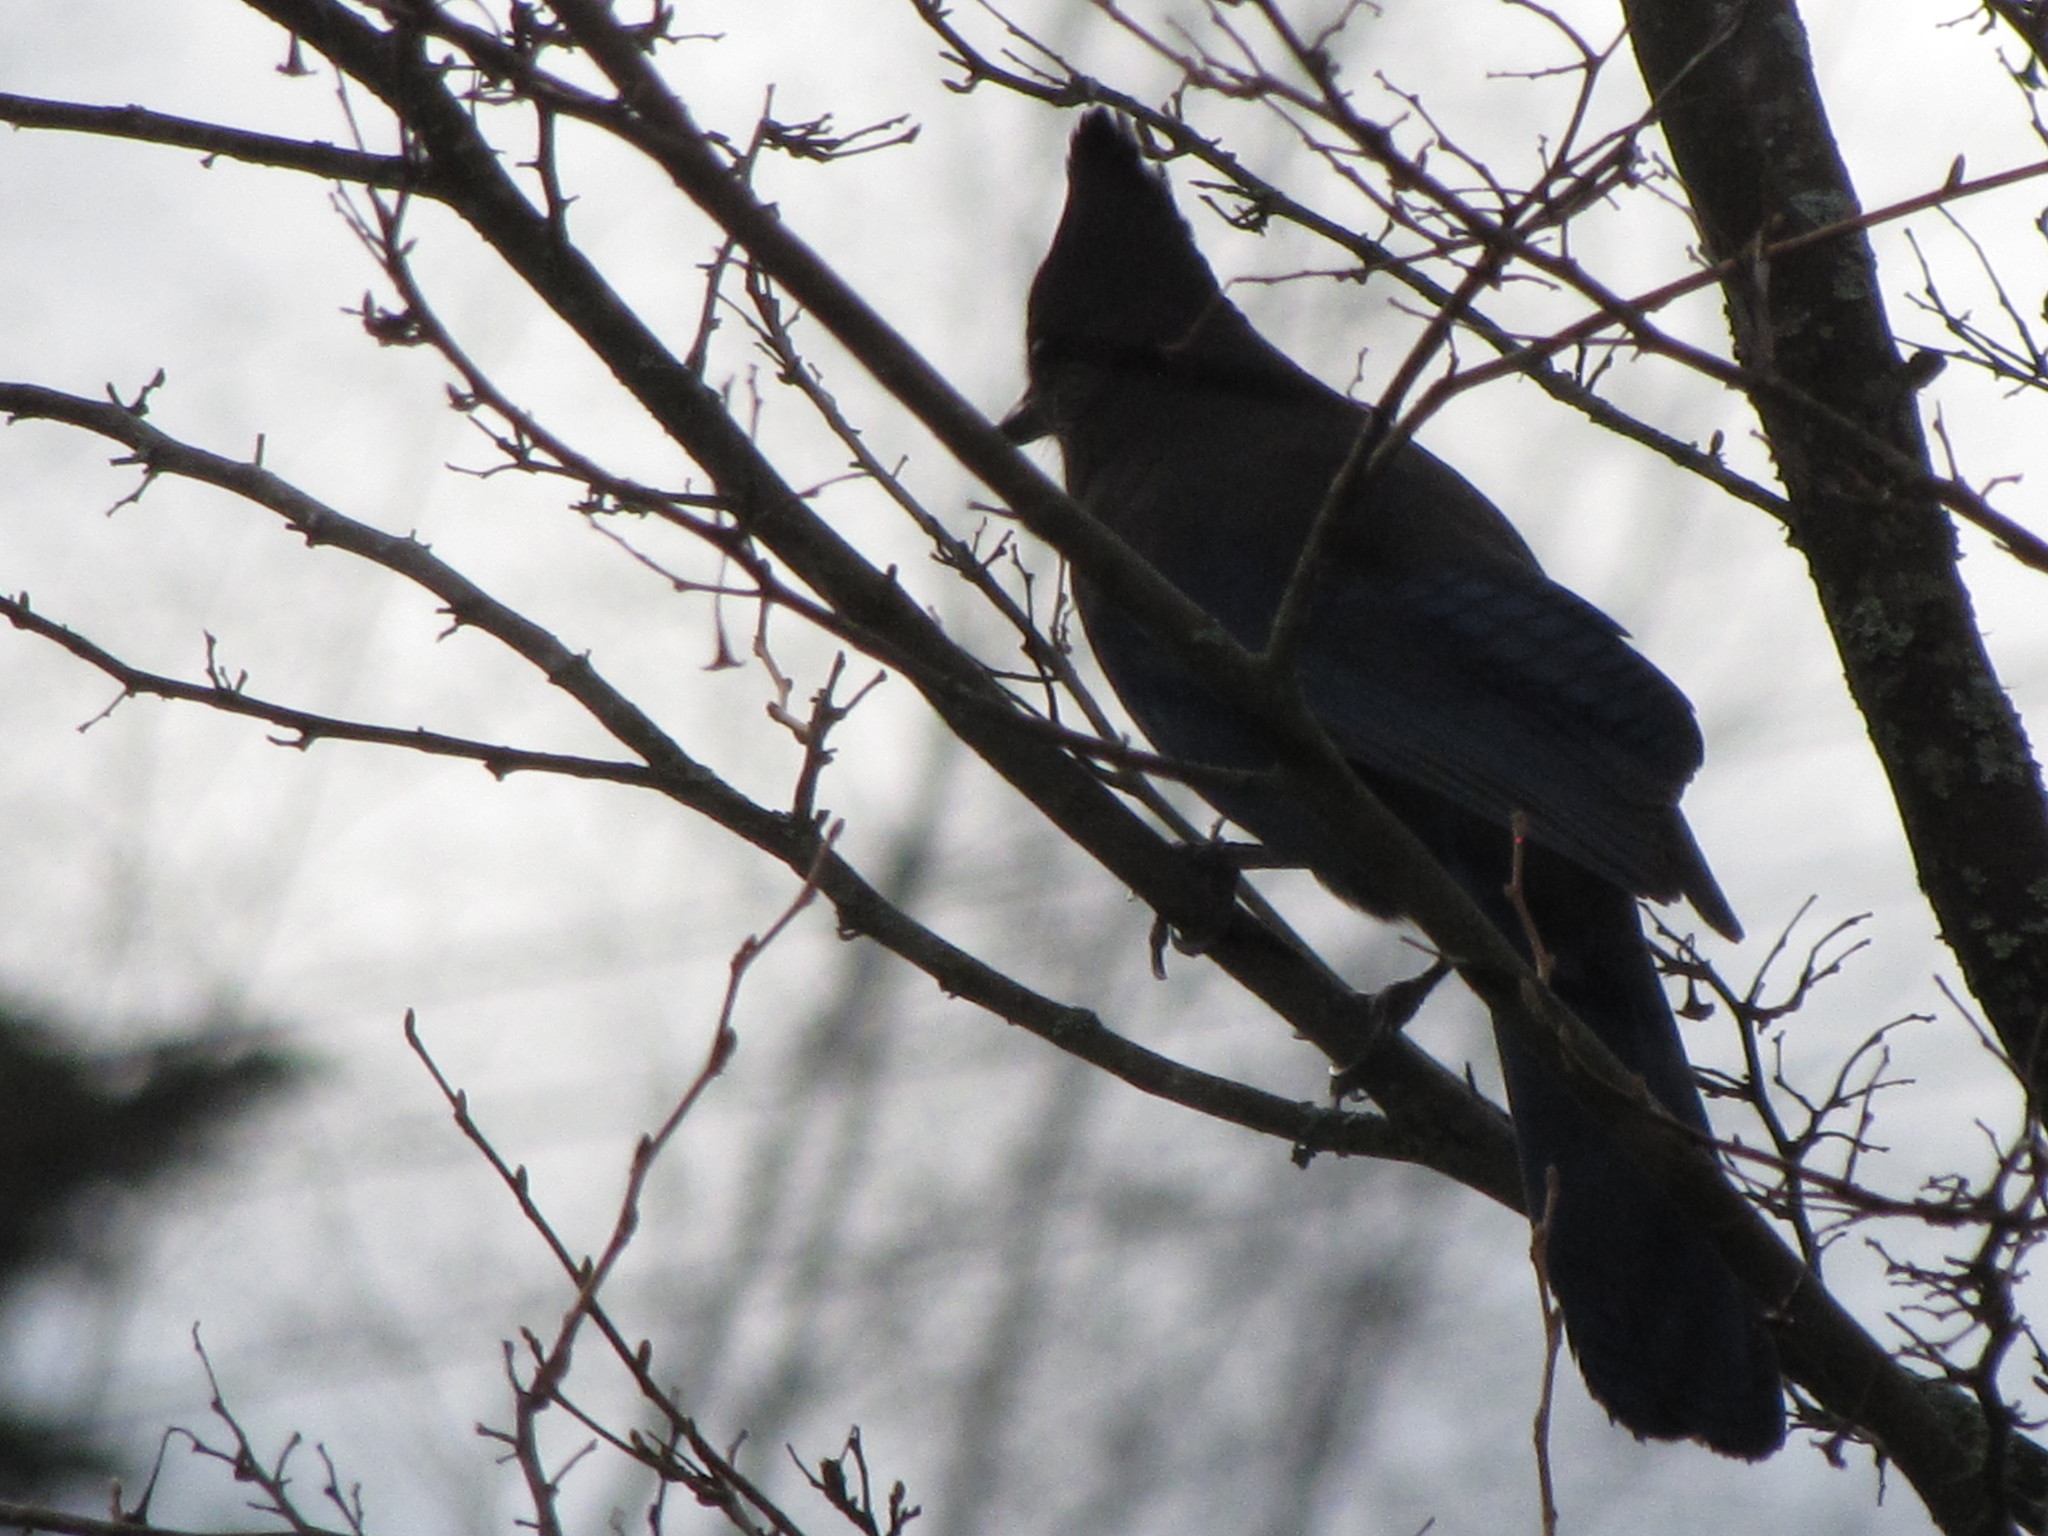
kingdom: Animalia
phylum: Chordata
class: Aves
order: Passeriformes
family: Corvidae
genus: Cyanocitta
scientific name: Cyanocitta stelleri
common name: Steller's jay
